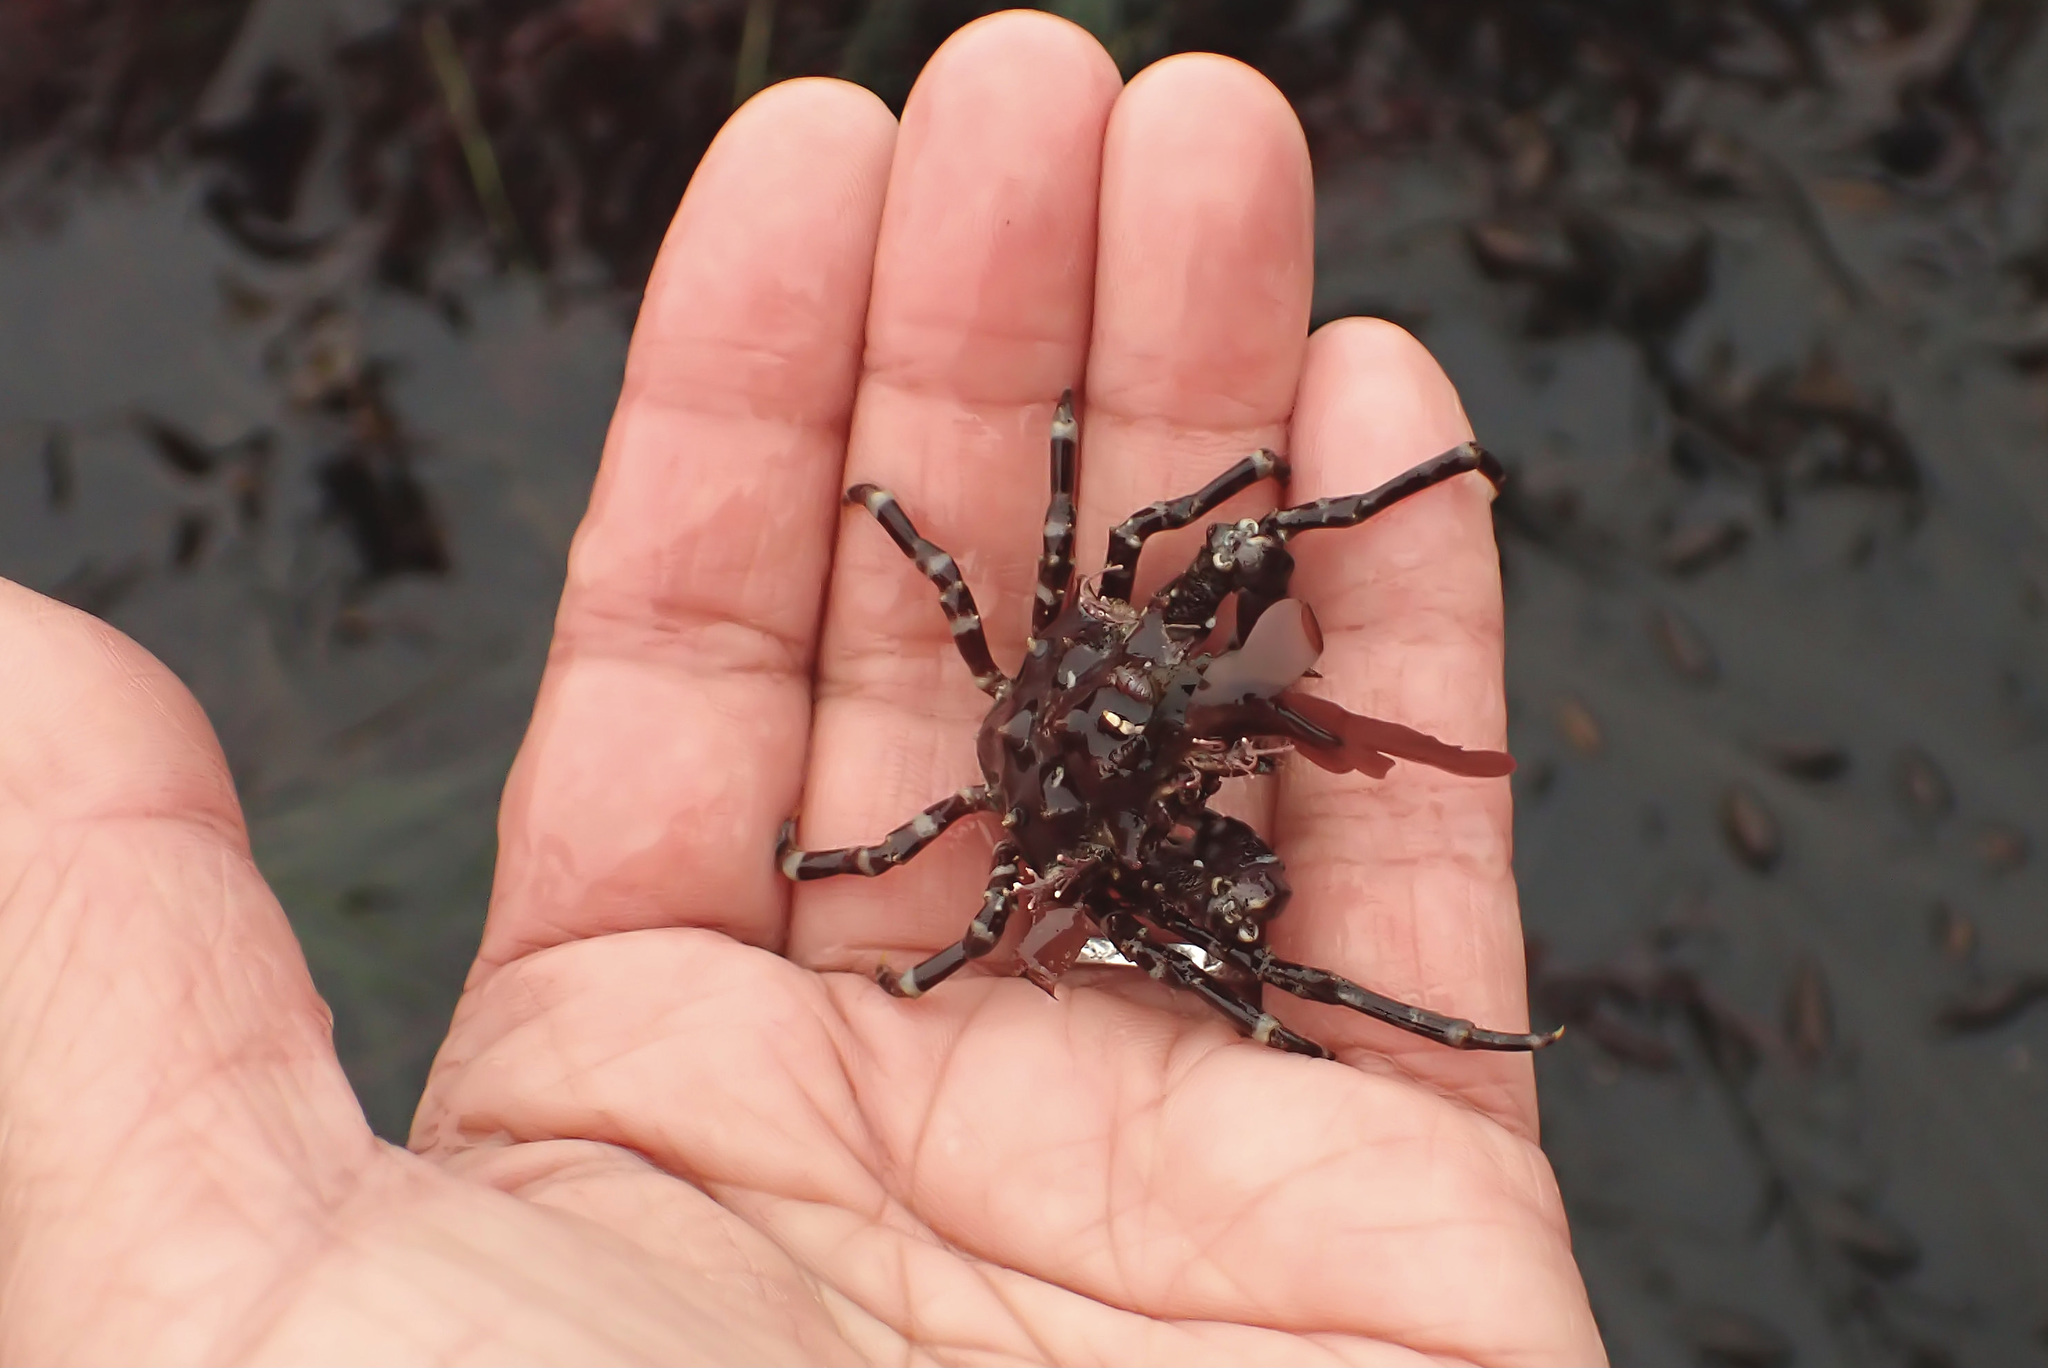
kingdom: Animalia
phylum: Arthropoda
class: Malacostraca
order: Decapoda
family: Epialtidae
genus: Pugettia
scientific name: Pugettia richii
